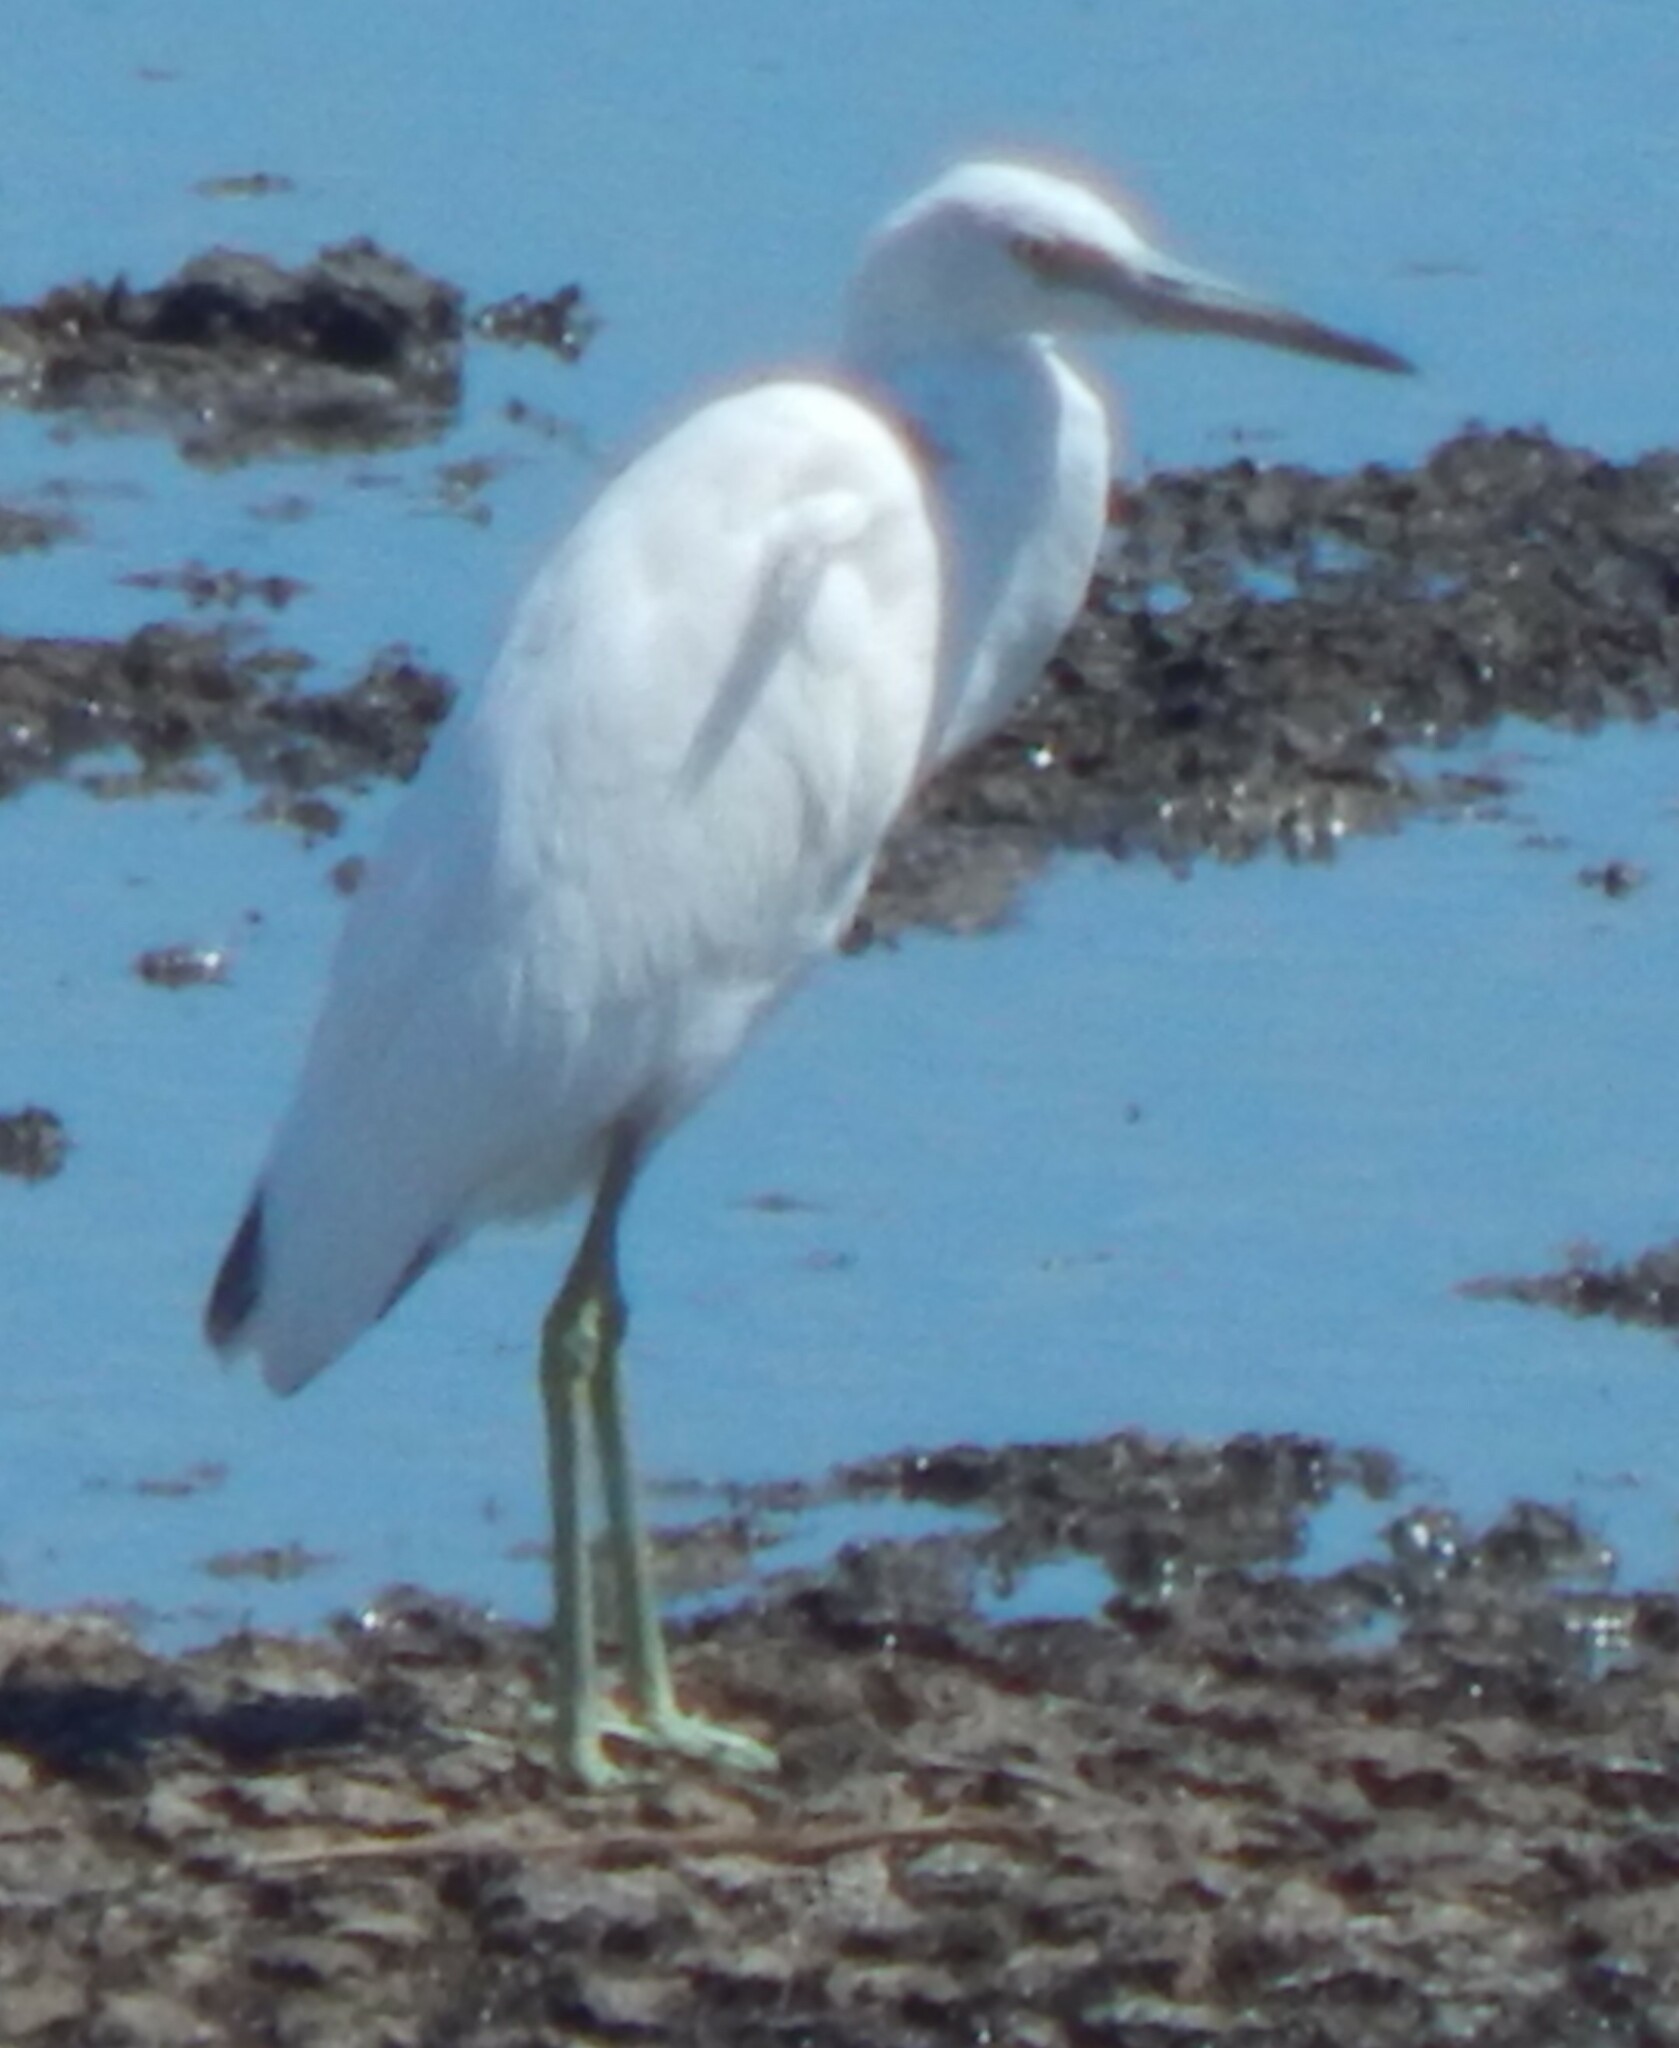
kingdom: Animalia
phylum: Chordata
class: Aves
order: Pelecaniformes
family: Ardeidae
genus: Egretta
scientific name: Egretta caerulea
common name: Little blue heron
